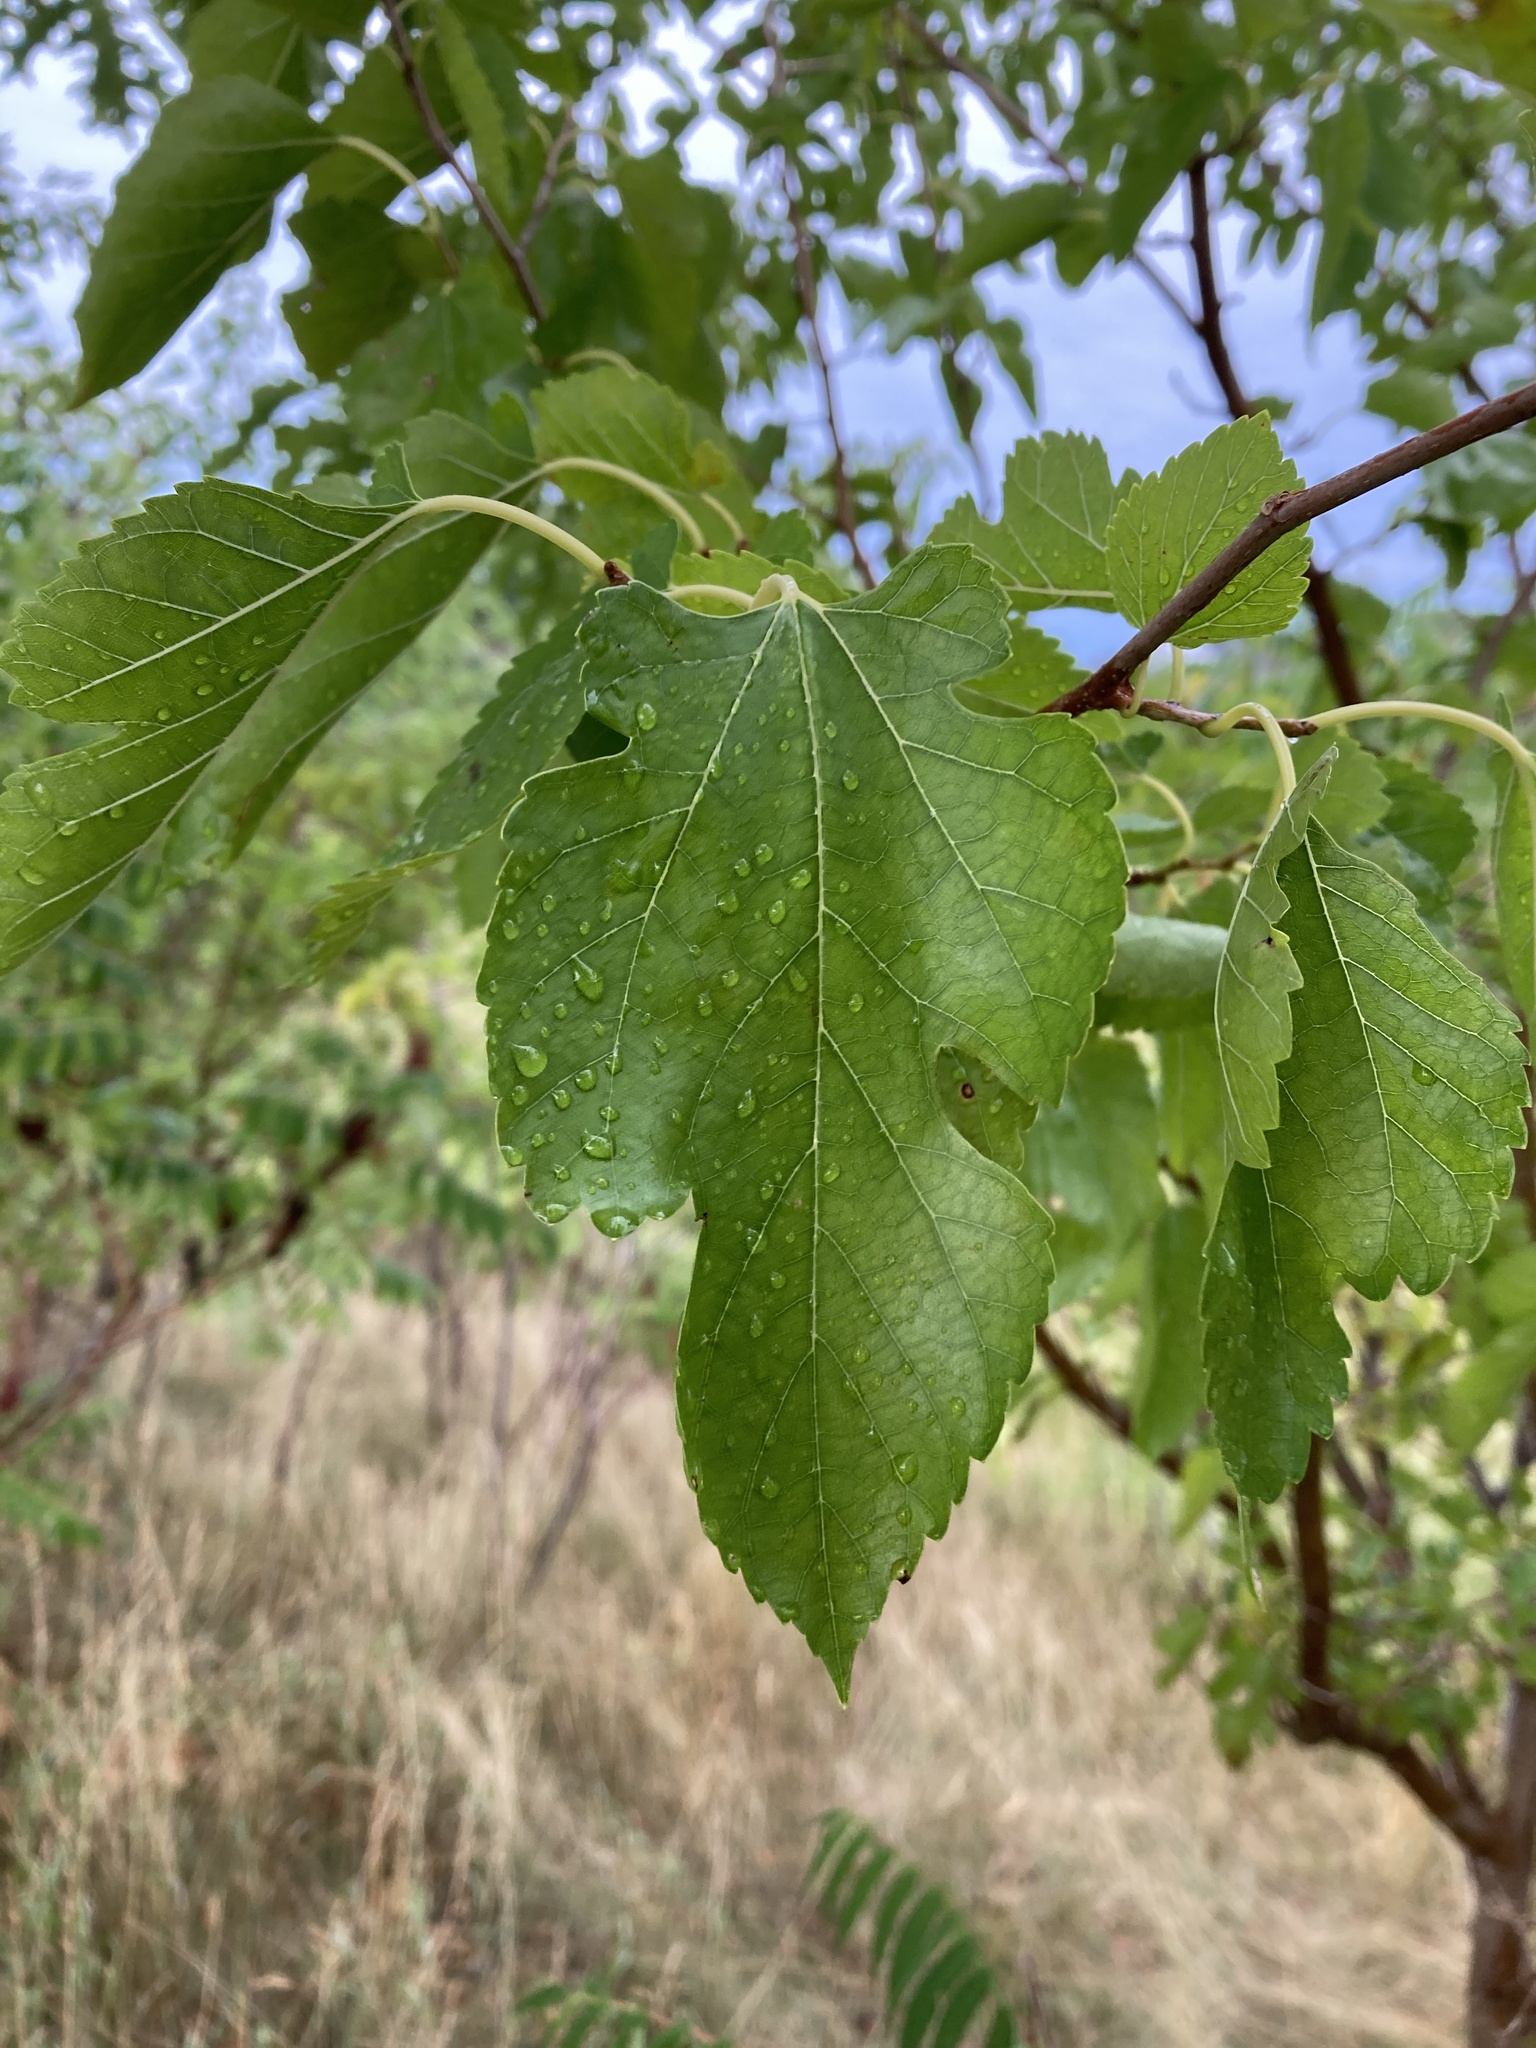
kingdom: Plantae
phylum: Tracheophyta
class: Magnoliopsida
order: Rosales
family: Moraceae
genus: Morus
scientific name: Morus alba
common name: White mulberry
